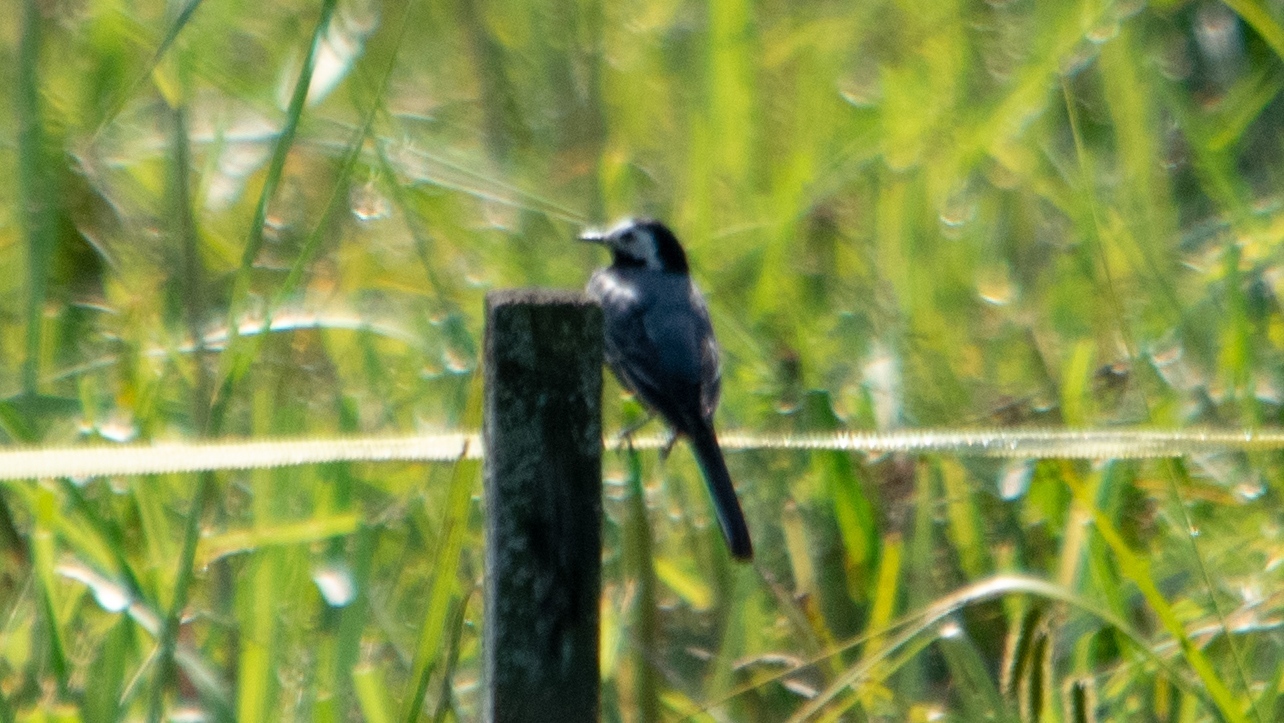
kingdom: Animalia
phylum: Chordata
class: Aves
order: Passeriformes
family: Motacillidae
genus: Motacilla
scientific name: Motacilla alba
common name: White wagtail
